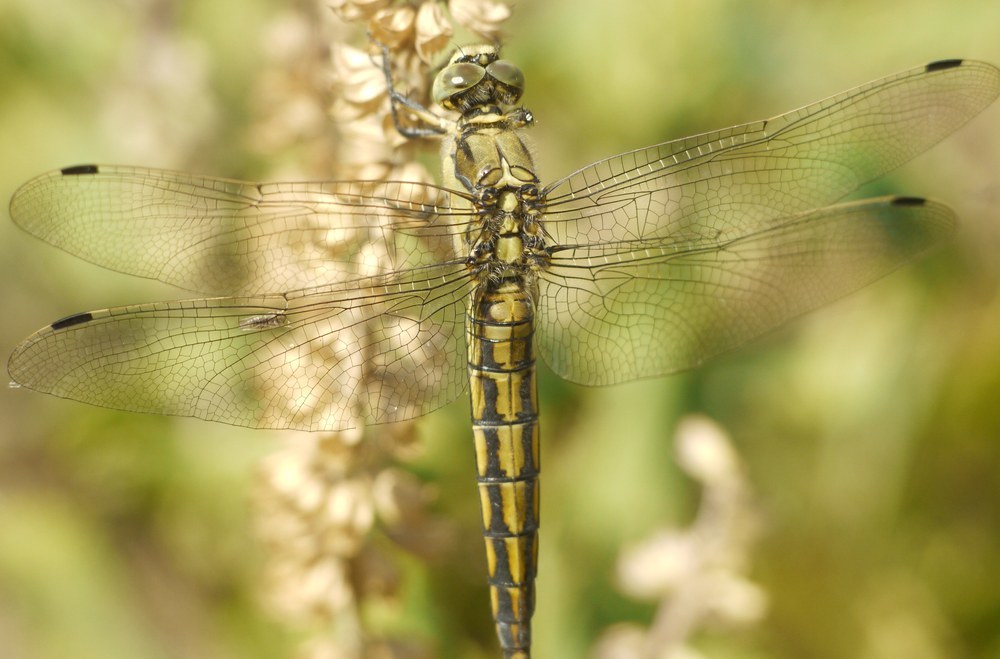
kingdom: Animalia
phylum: Arthropoda
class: Insecta
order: Odonata
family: Libellulidae
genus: Orthetrum
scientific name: Orthetrum cancellatum
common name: Black-tailed skimmer
